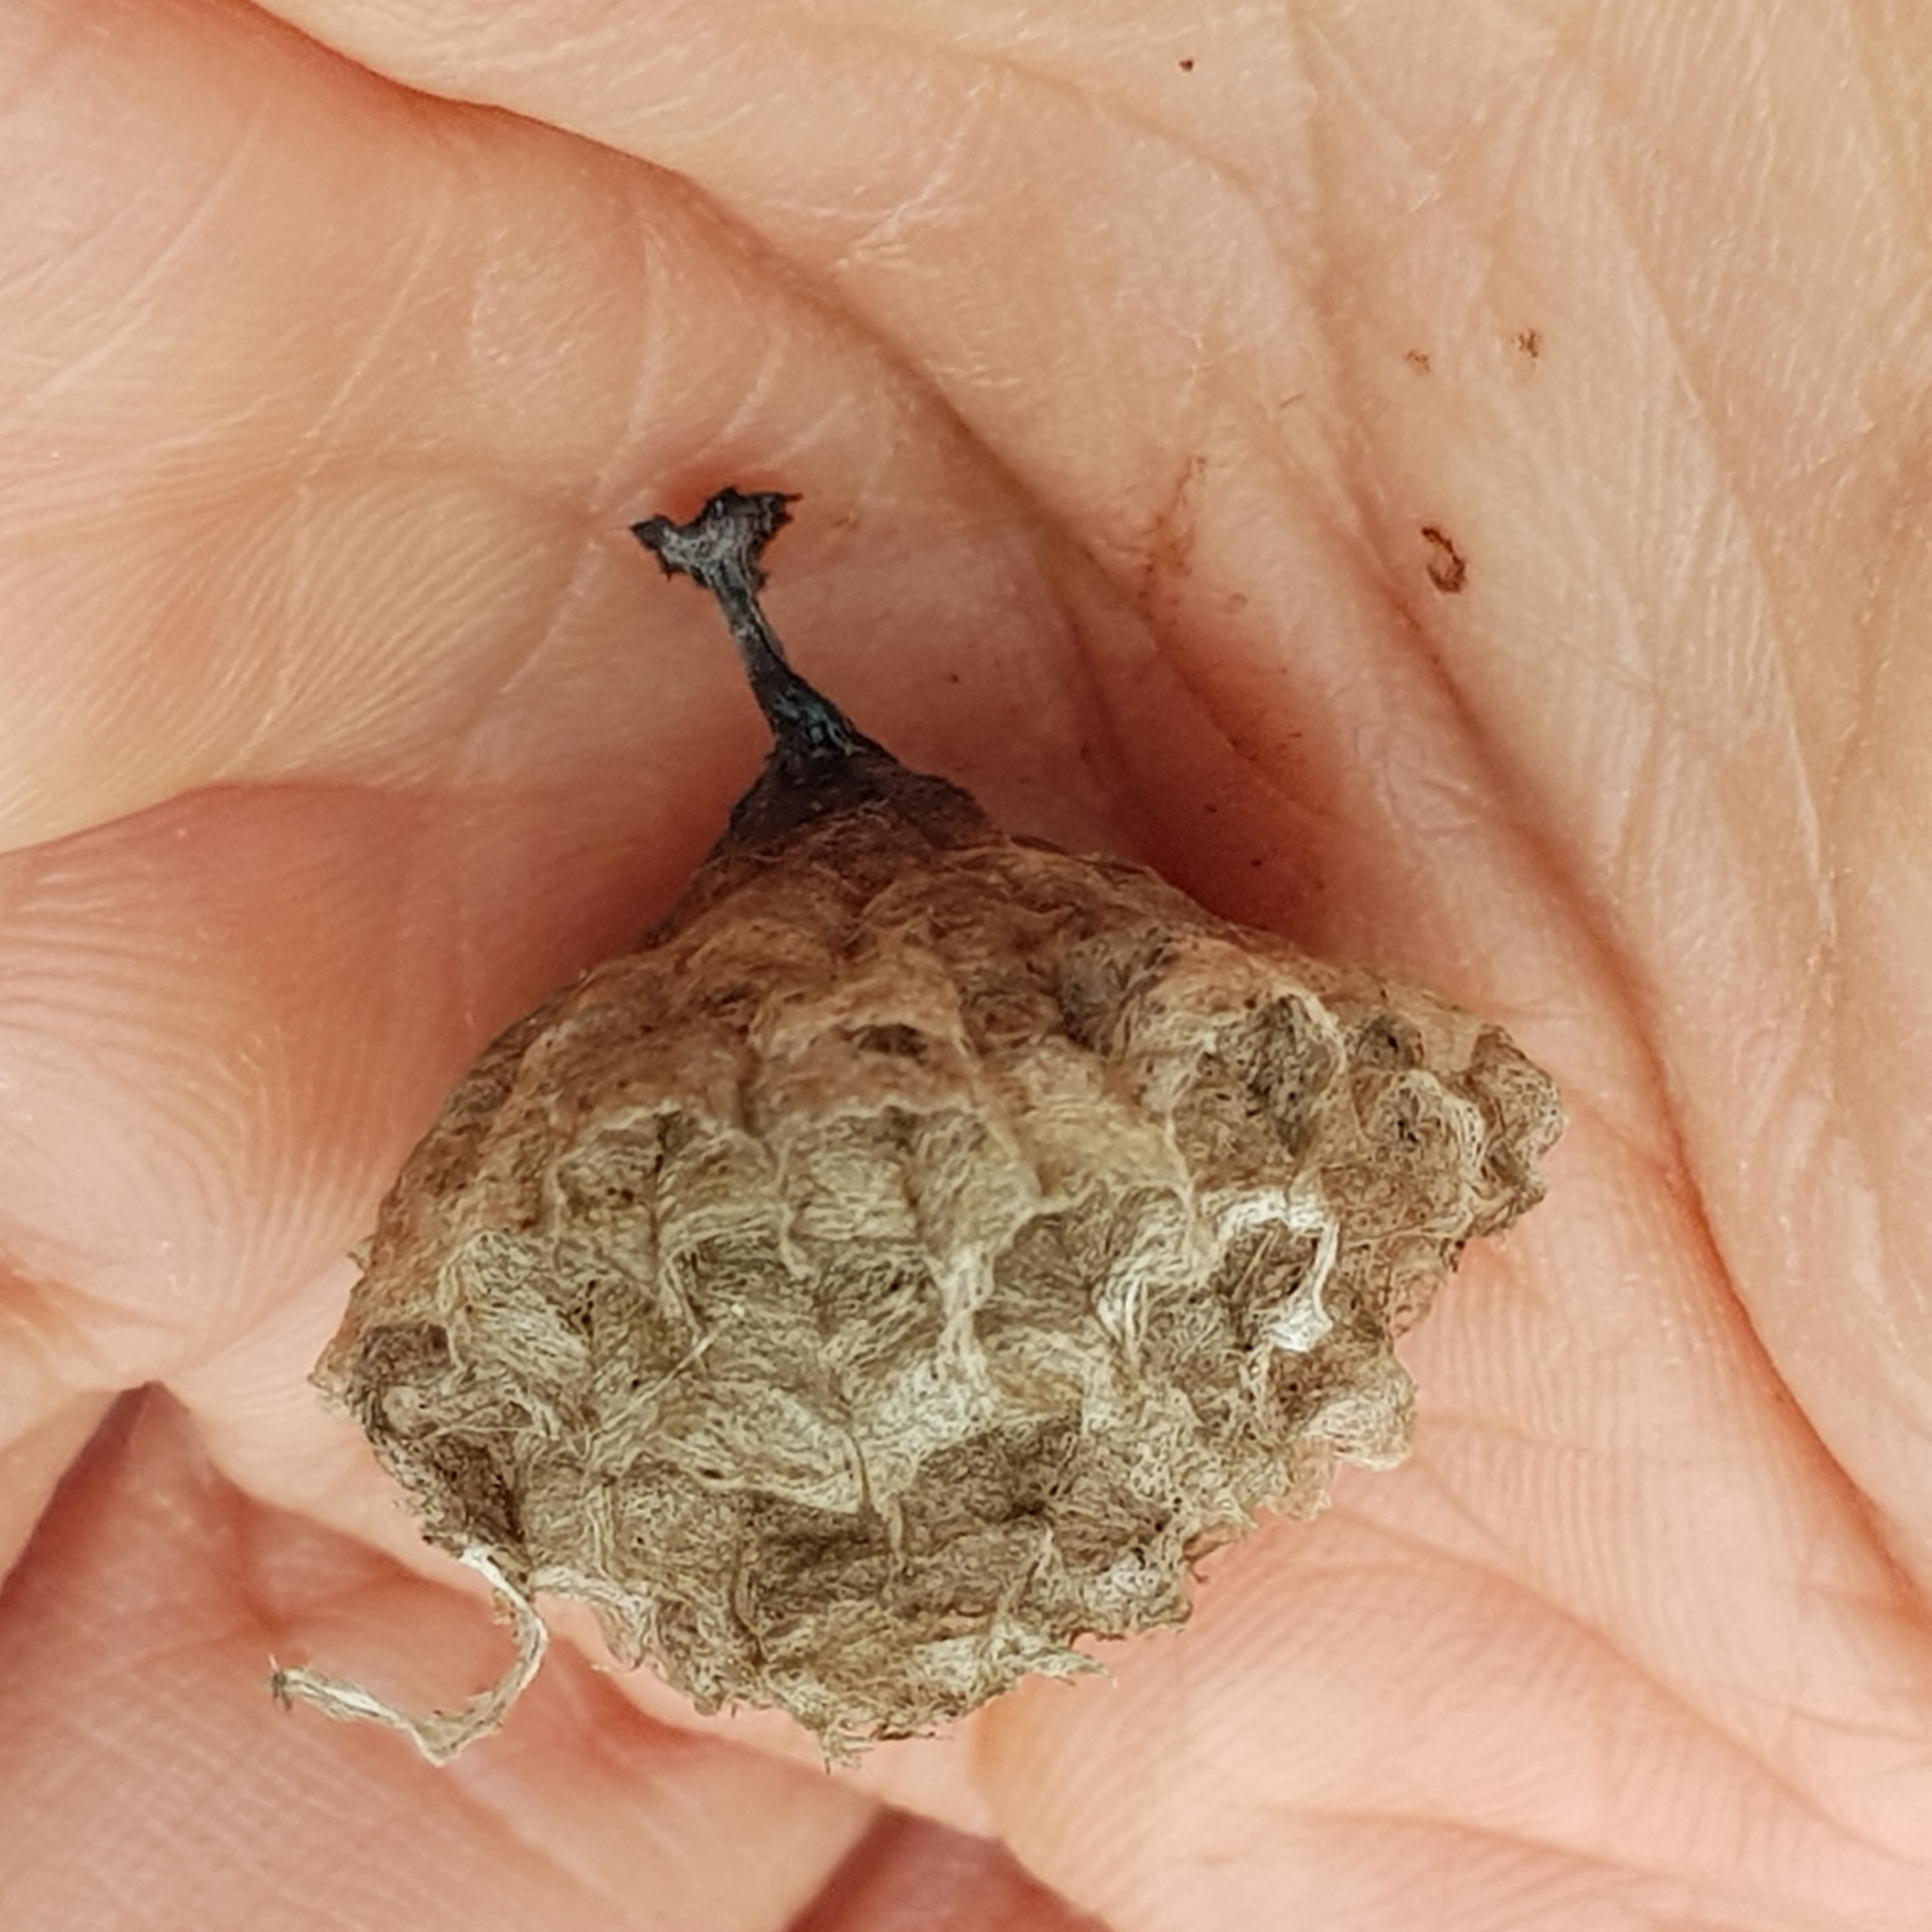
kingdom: Animalia
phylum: Arthropoda
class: Insecta
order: Hymenoptera
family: Eumenidae
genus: Polistes
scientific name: Polistes
